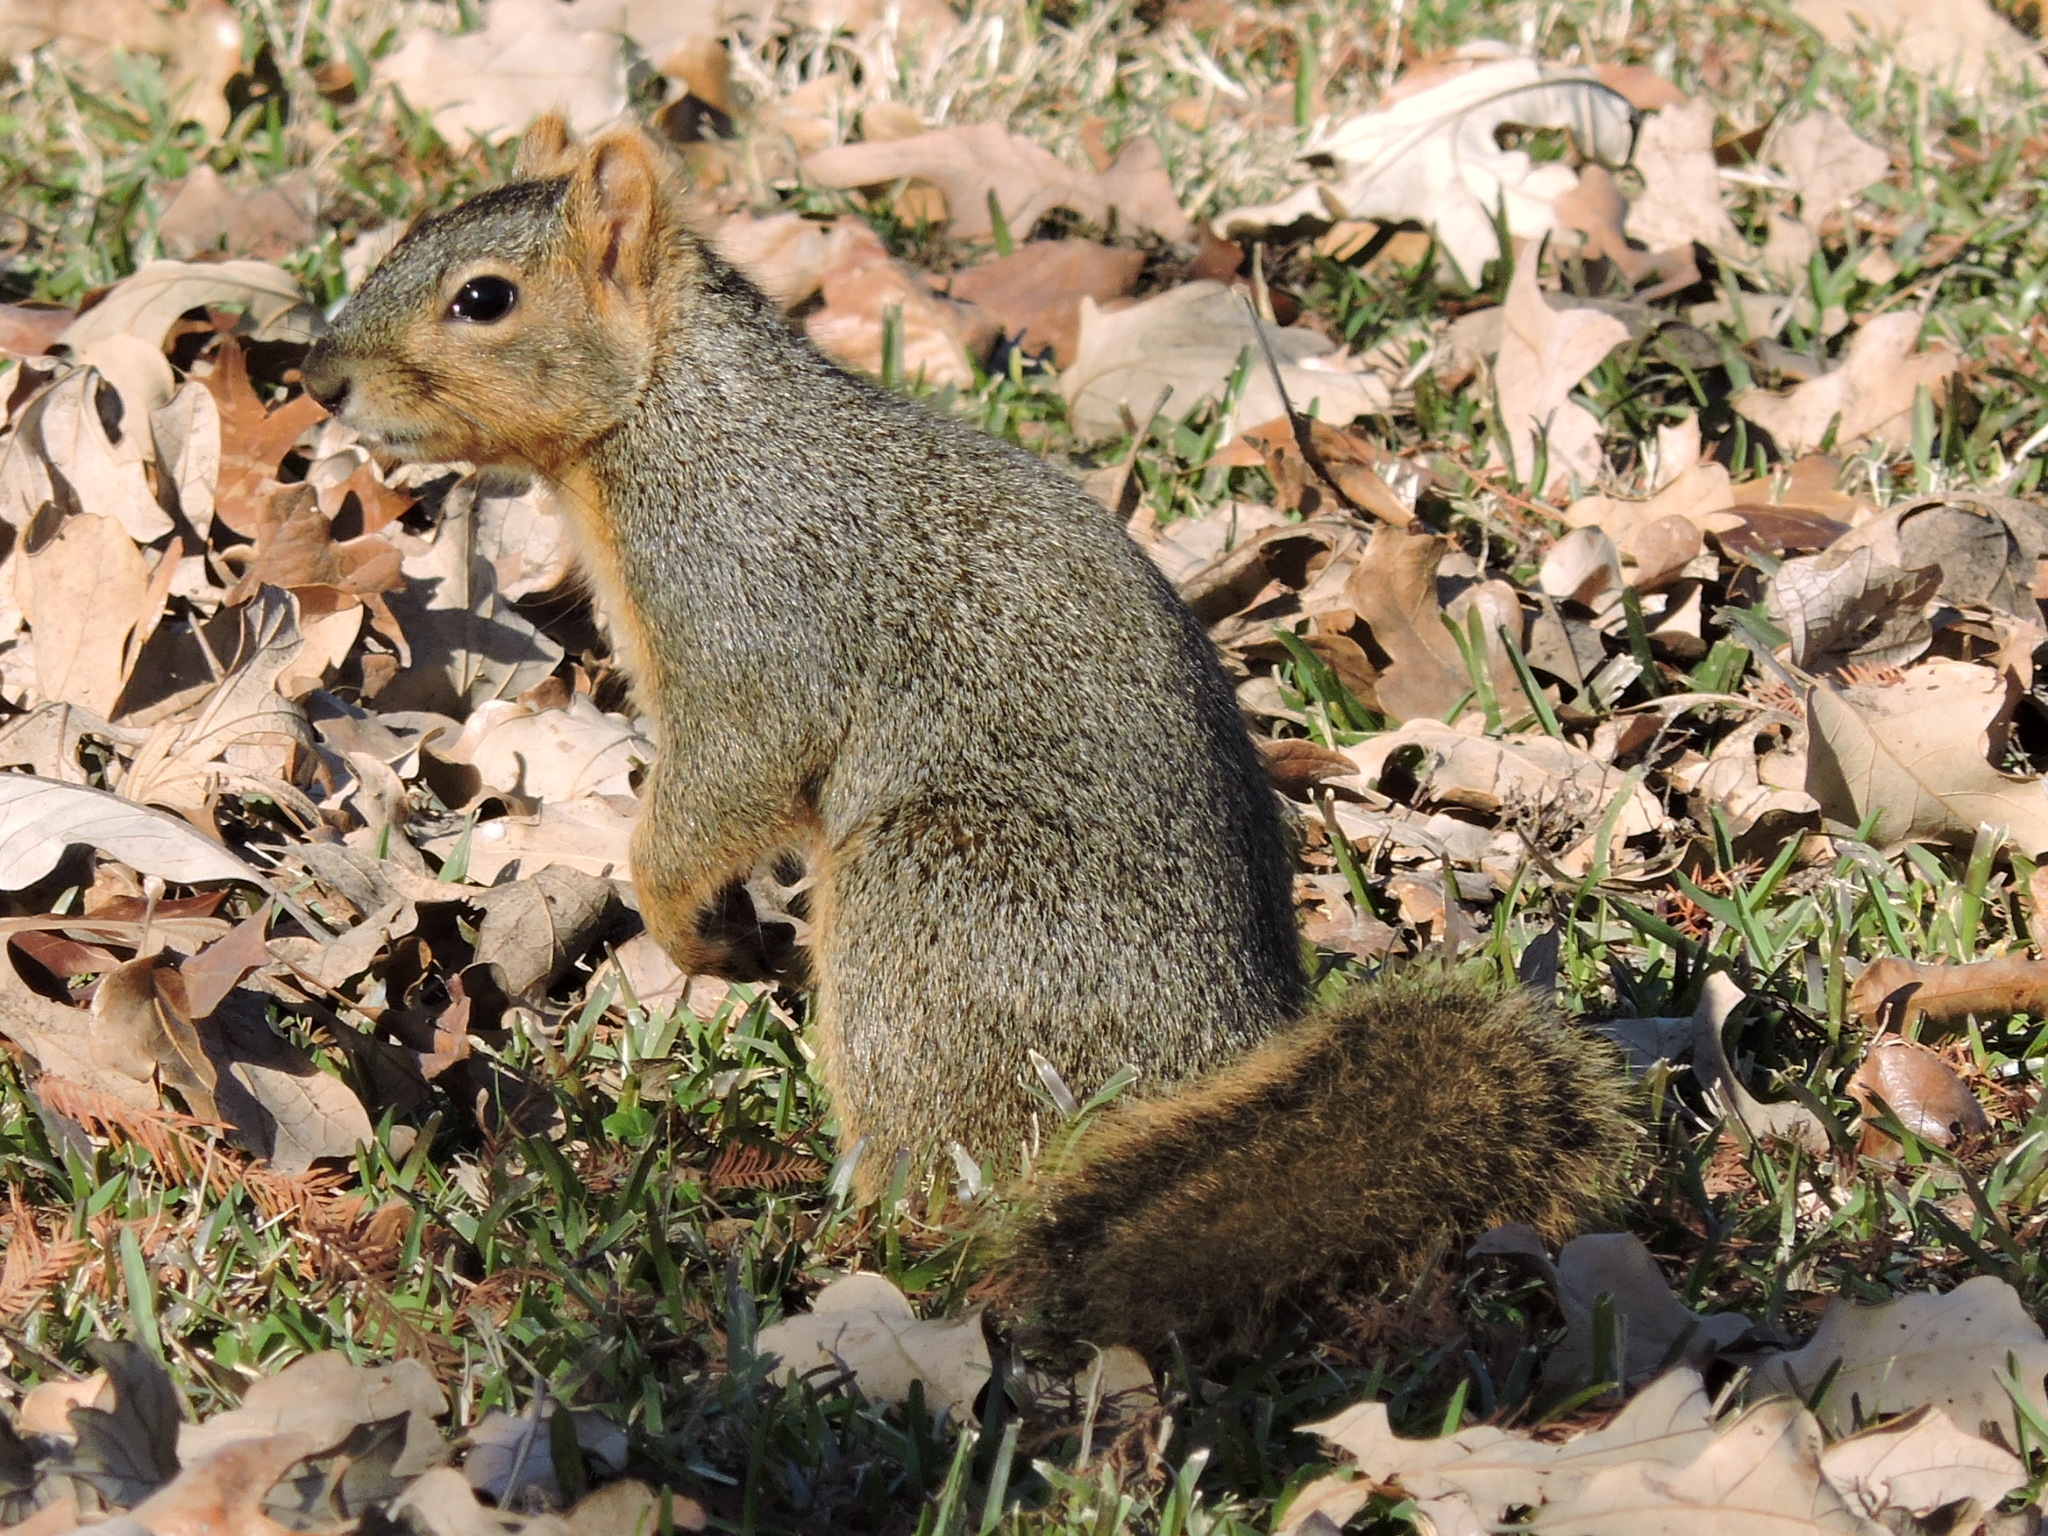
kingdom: Animalia
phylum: Chordata
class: Mammalia
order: Rodentia
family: Sciuridae
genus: Sciurus
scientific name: Sciurus niger
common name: Fox squirrel
